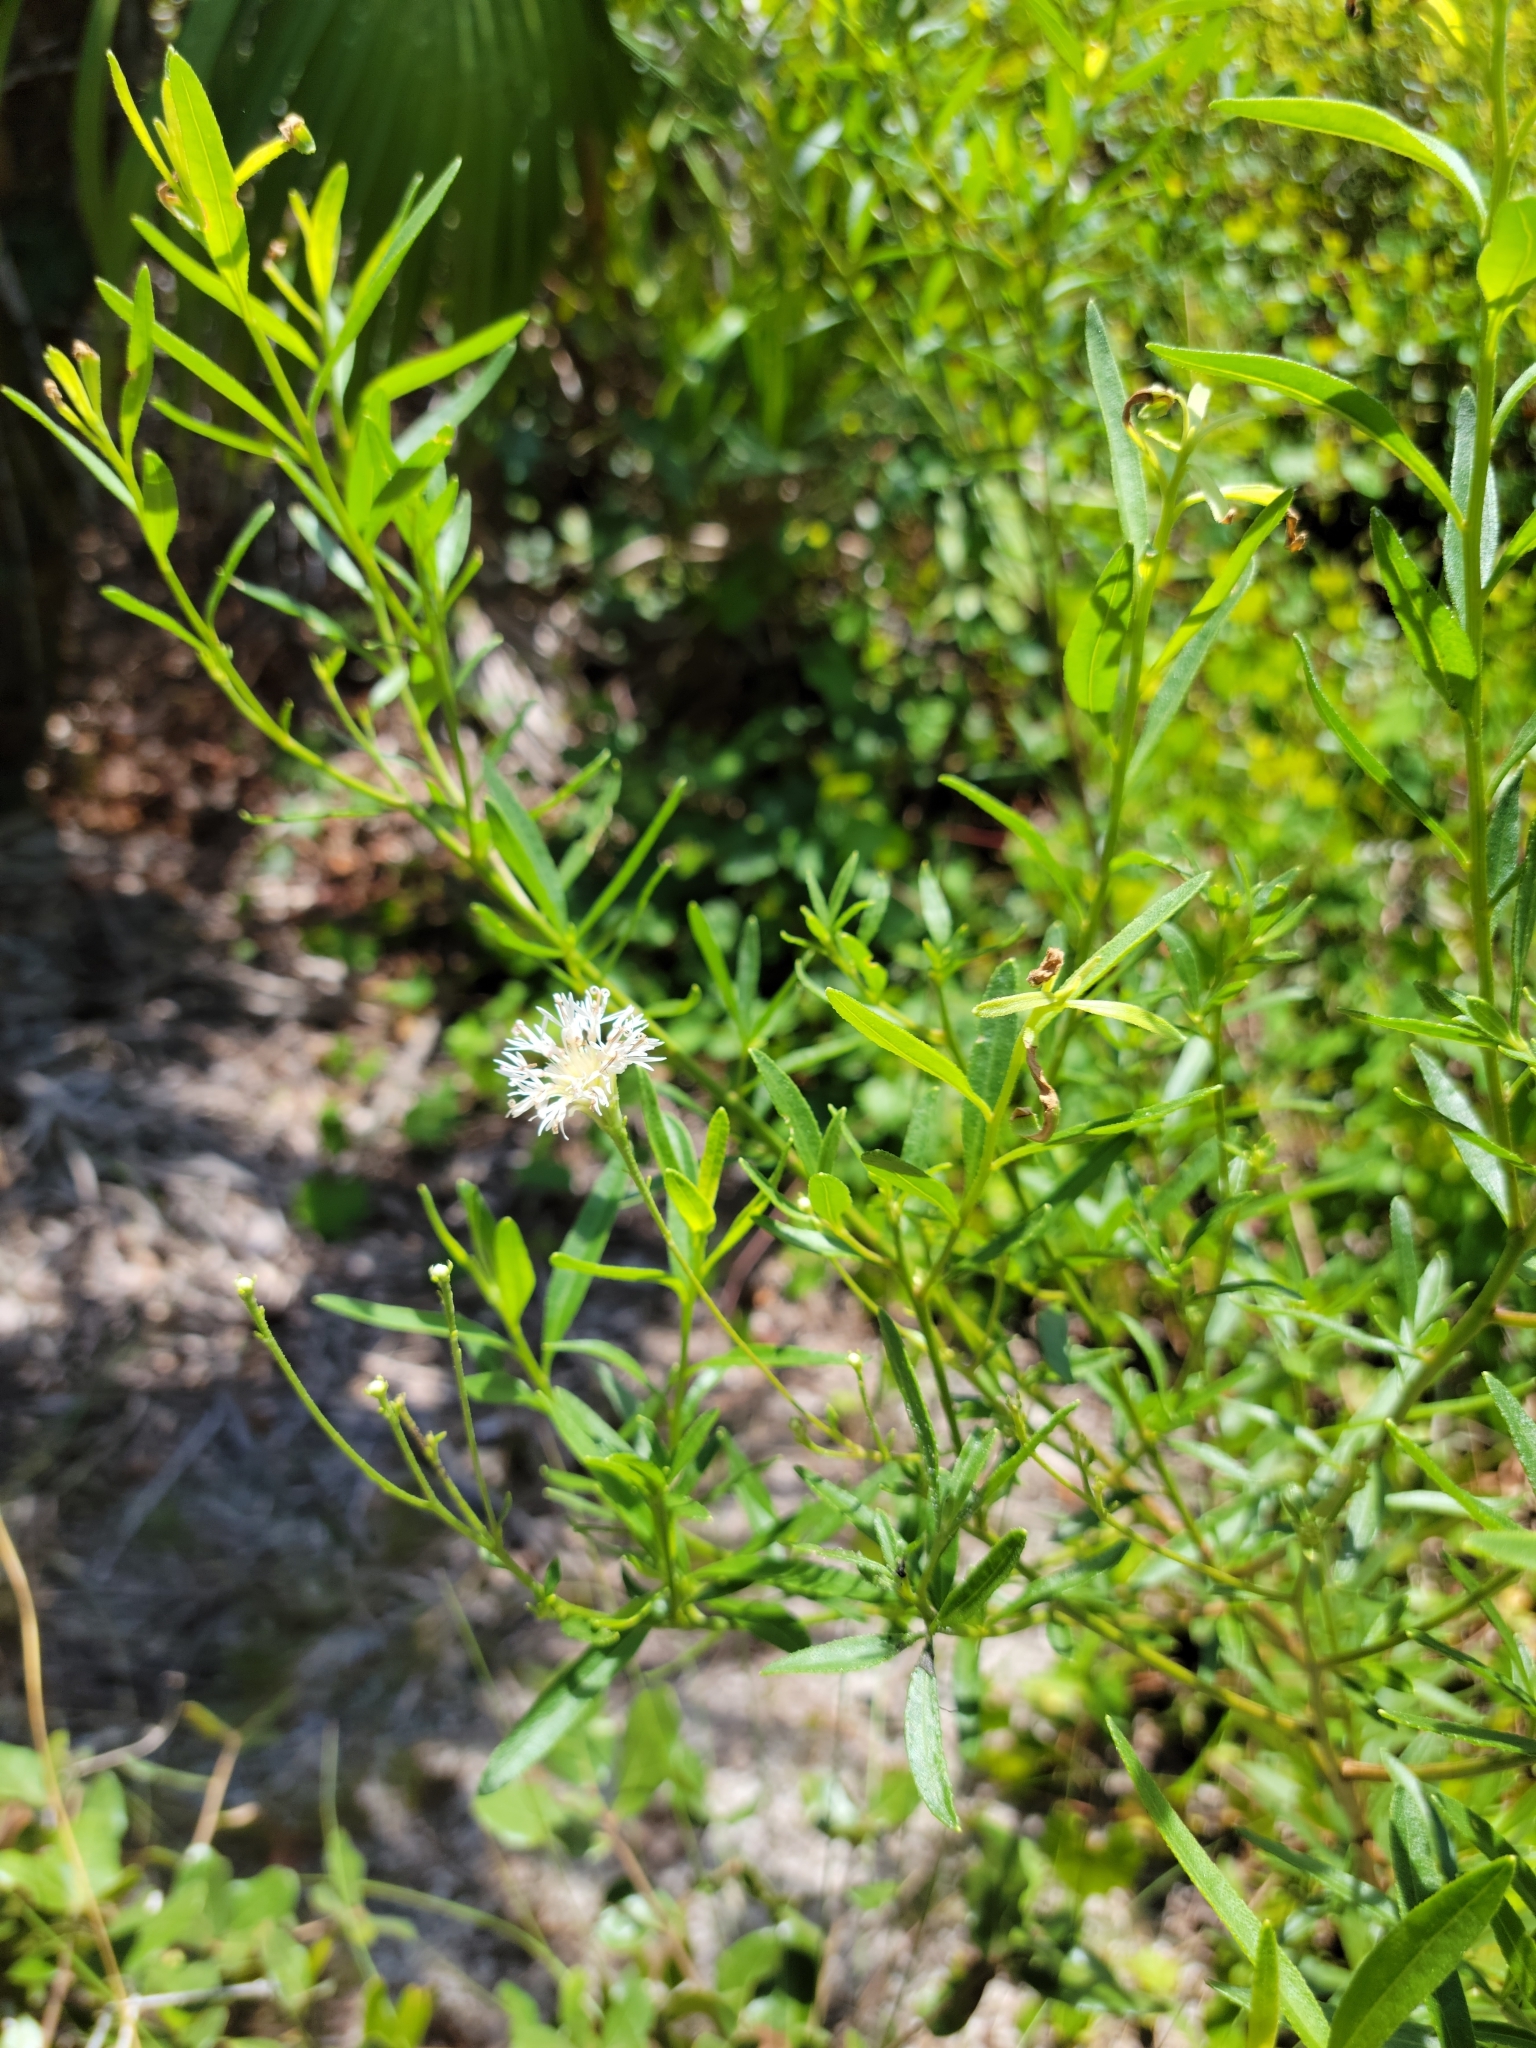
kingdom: Plantae
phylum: Tracheophyta
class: Magnoliopsida
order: Asterales
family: Asteraceae
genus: Palafoxia
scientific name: Palafoxia integrifolia
